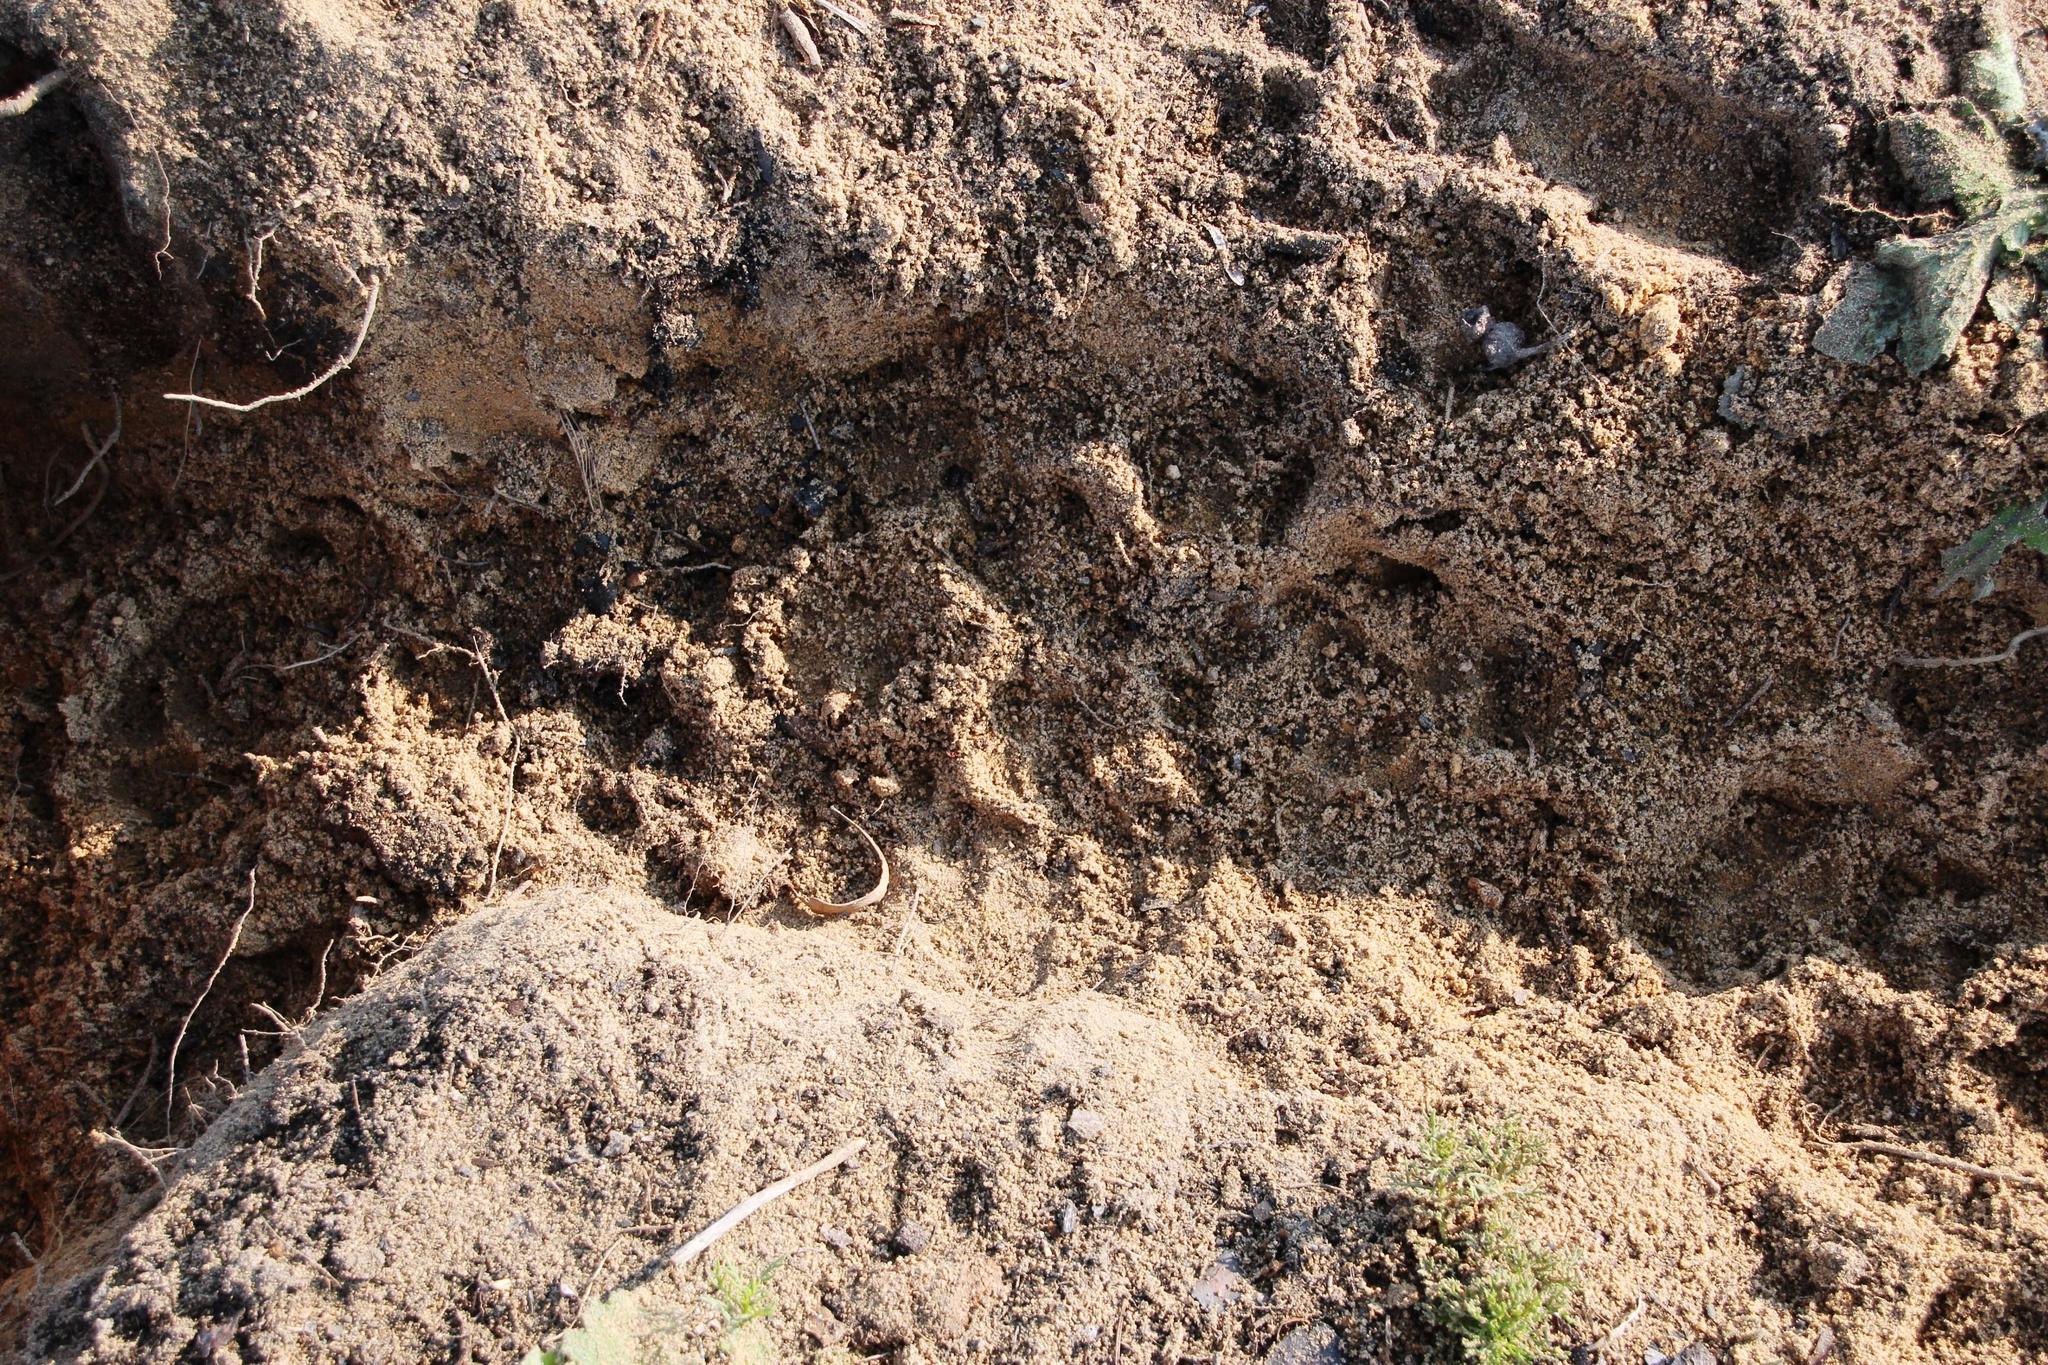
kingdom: Animalia
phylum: Chordata
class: Mammalia
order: Carnivora
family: Canidae
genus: Vulpes
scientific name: Vulpes chama
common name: Cape fox
